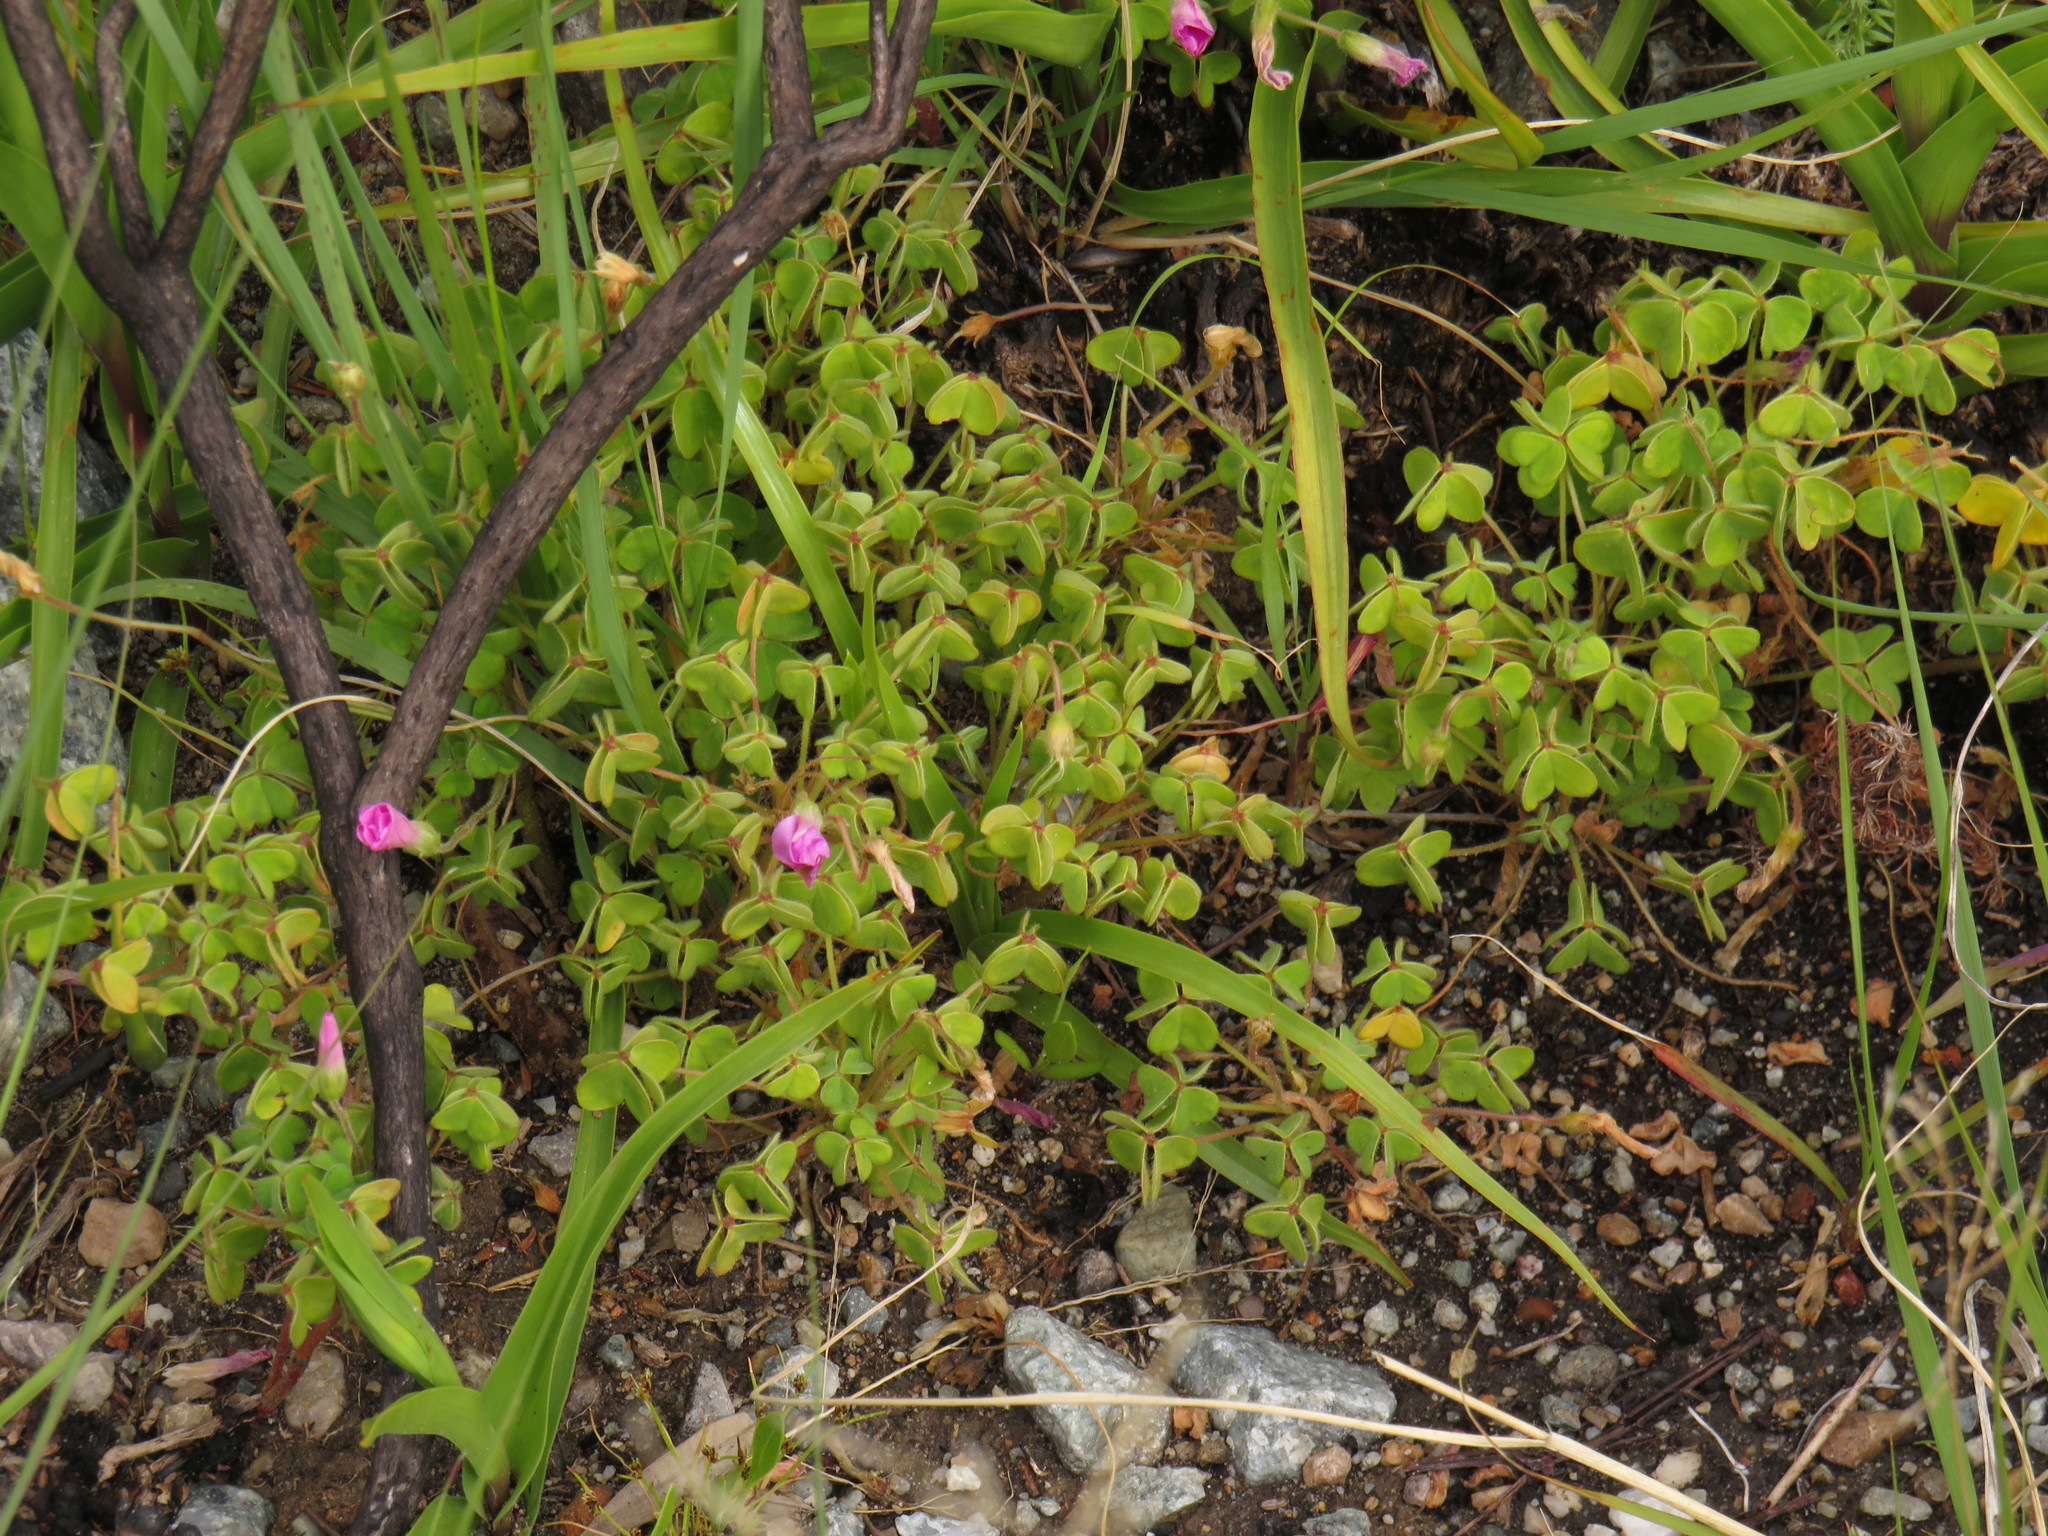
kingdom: Plantae
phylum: Tracheophyta
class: Magnoliopsida
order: Oxalidales
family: Oxalidaceae
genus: Oxalis
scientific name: Oxalis lanata
